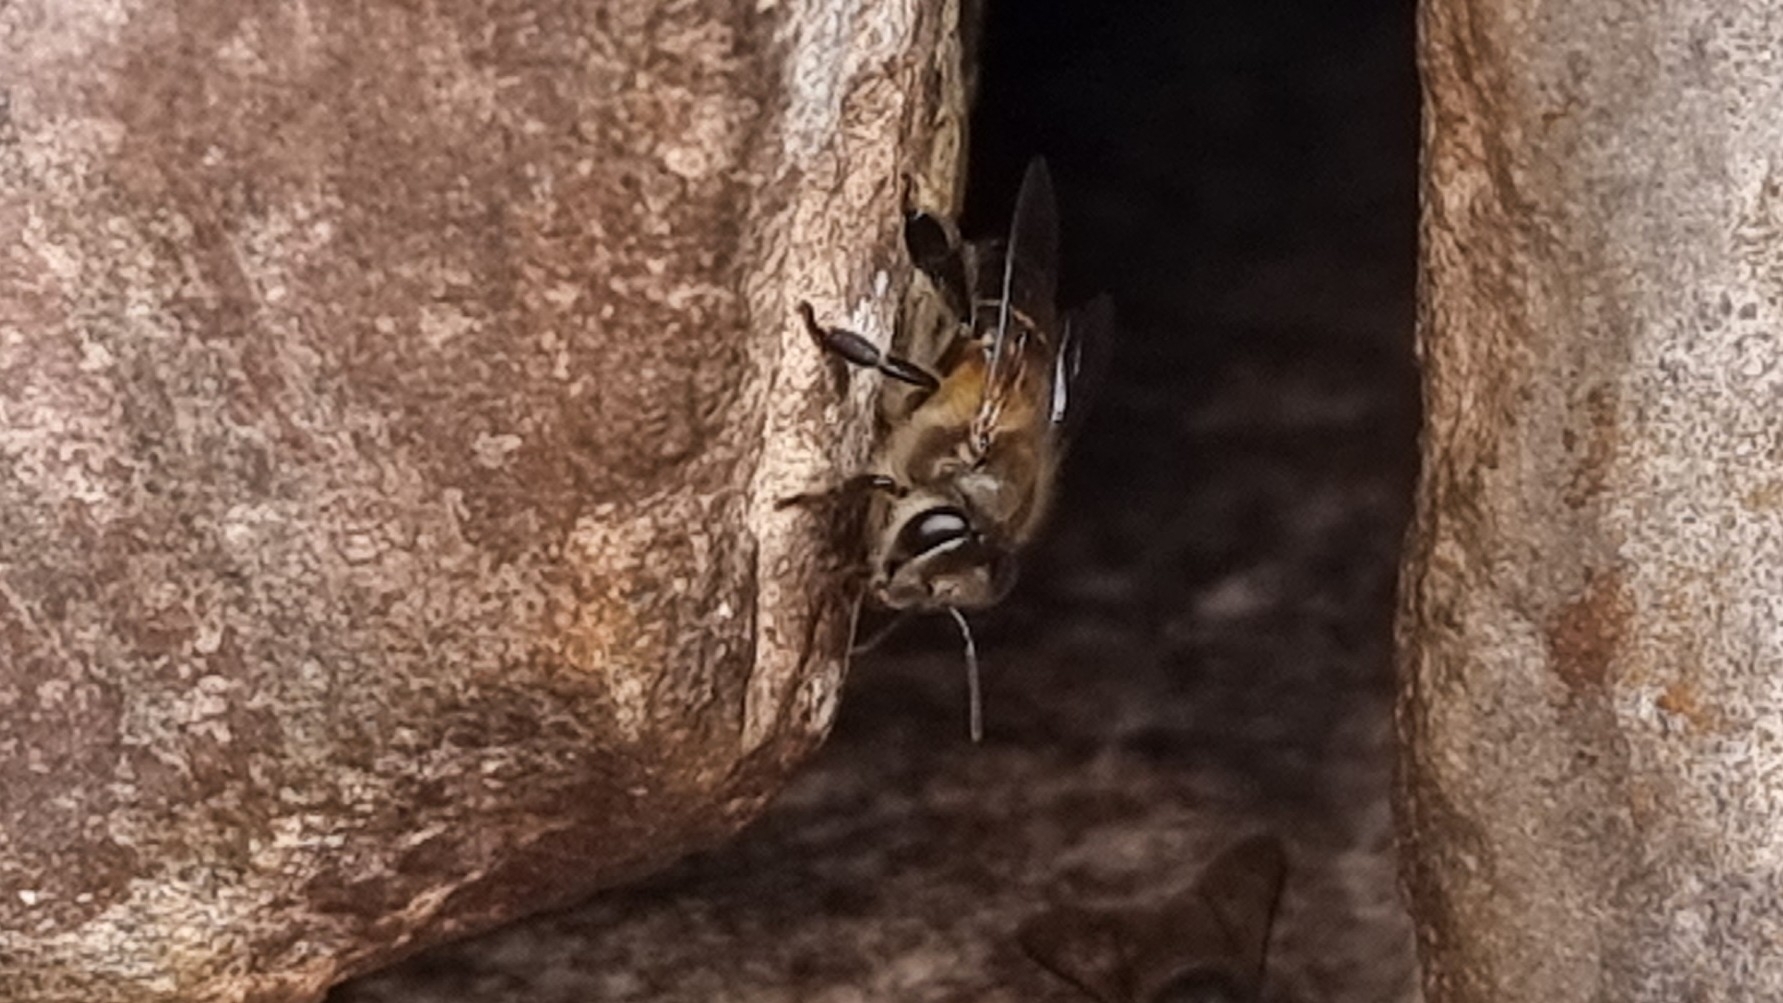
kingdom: Animalia
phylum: Arthropoda
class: Insecta
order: Hymenoptera
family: Apidae
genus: Apis
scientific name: Apis cerana
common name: Honey bee
